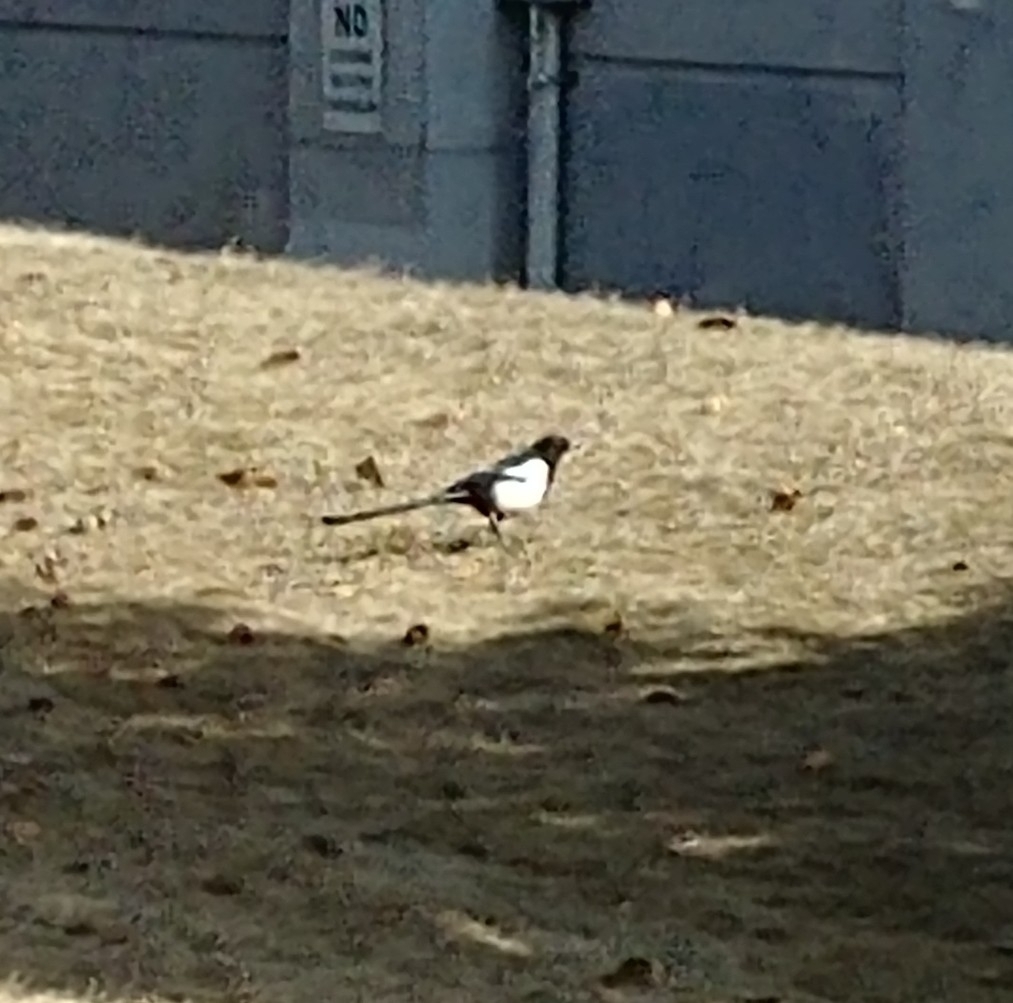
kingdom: Animalia
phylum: Chordata
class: Aves
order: Passeriformes
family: Corvidae
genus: Pica
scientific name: Pica hudsonia
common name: Black-billed magpie
